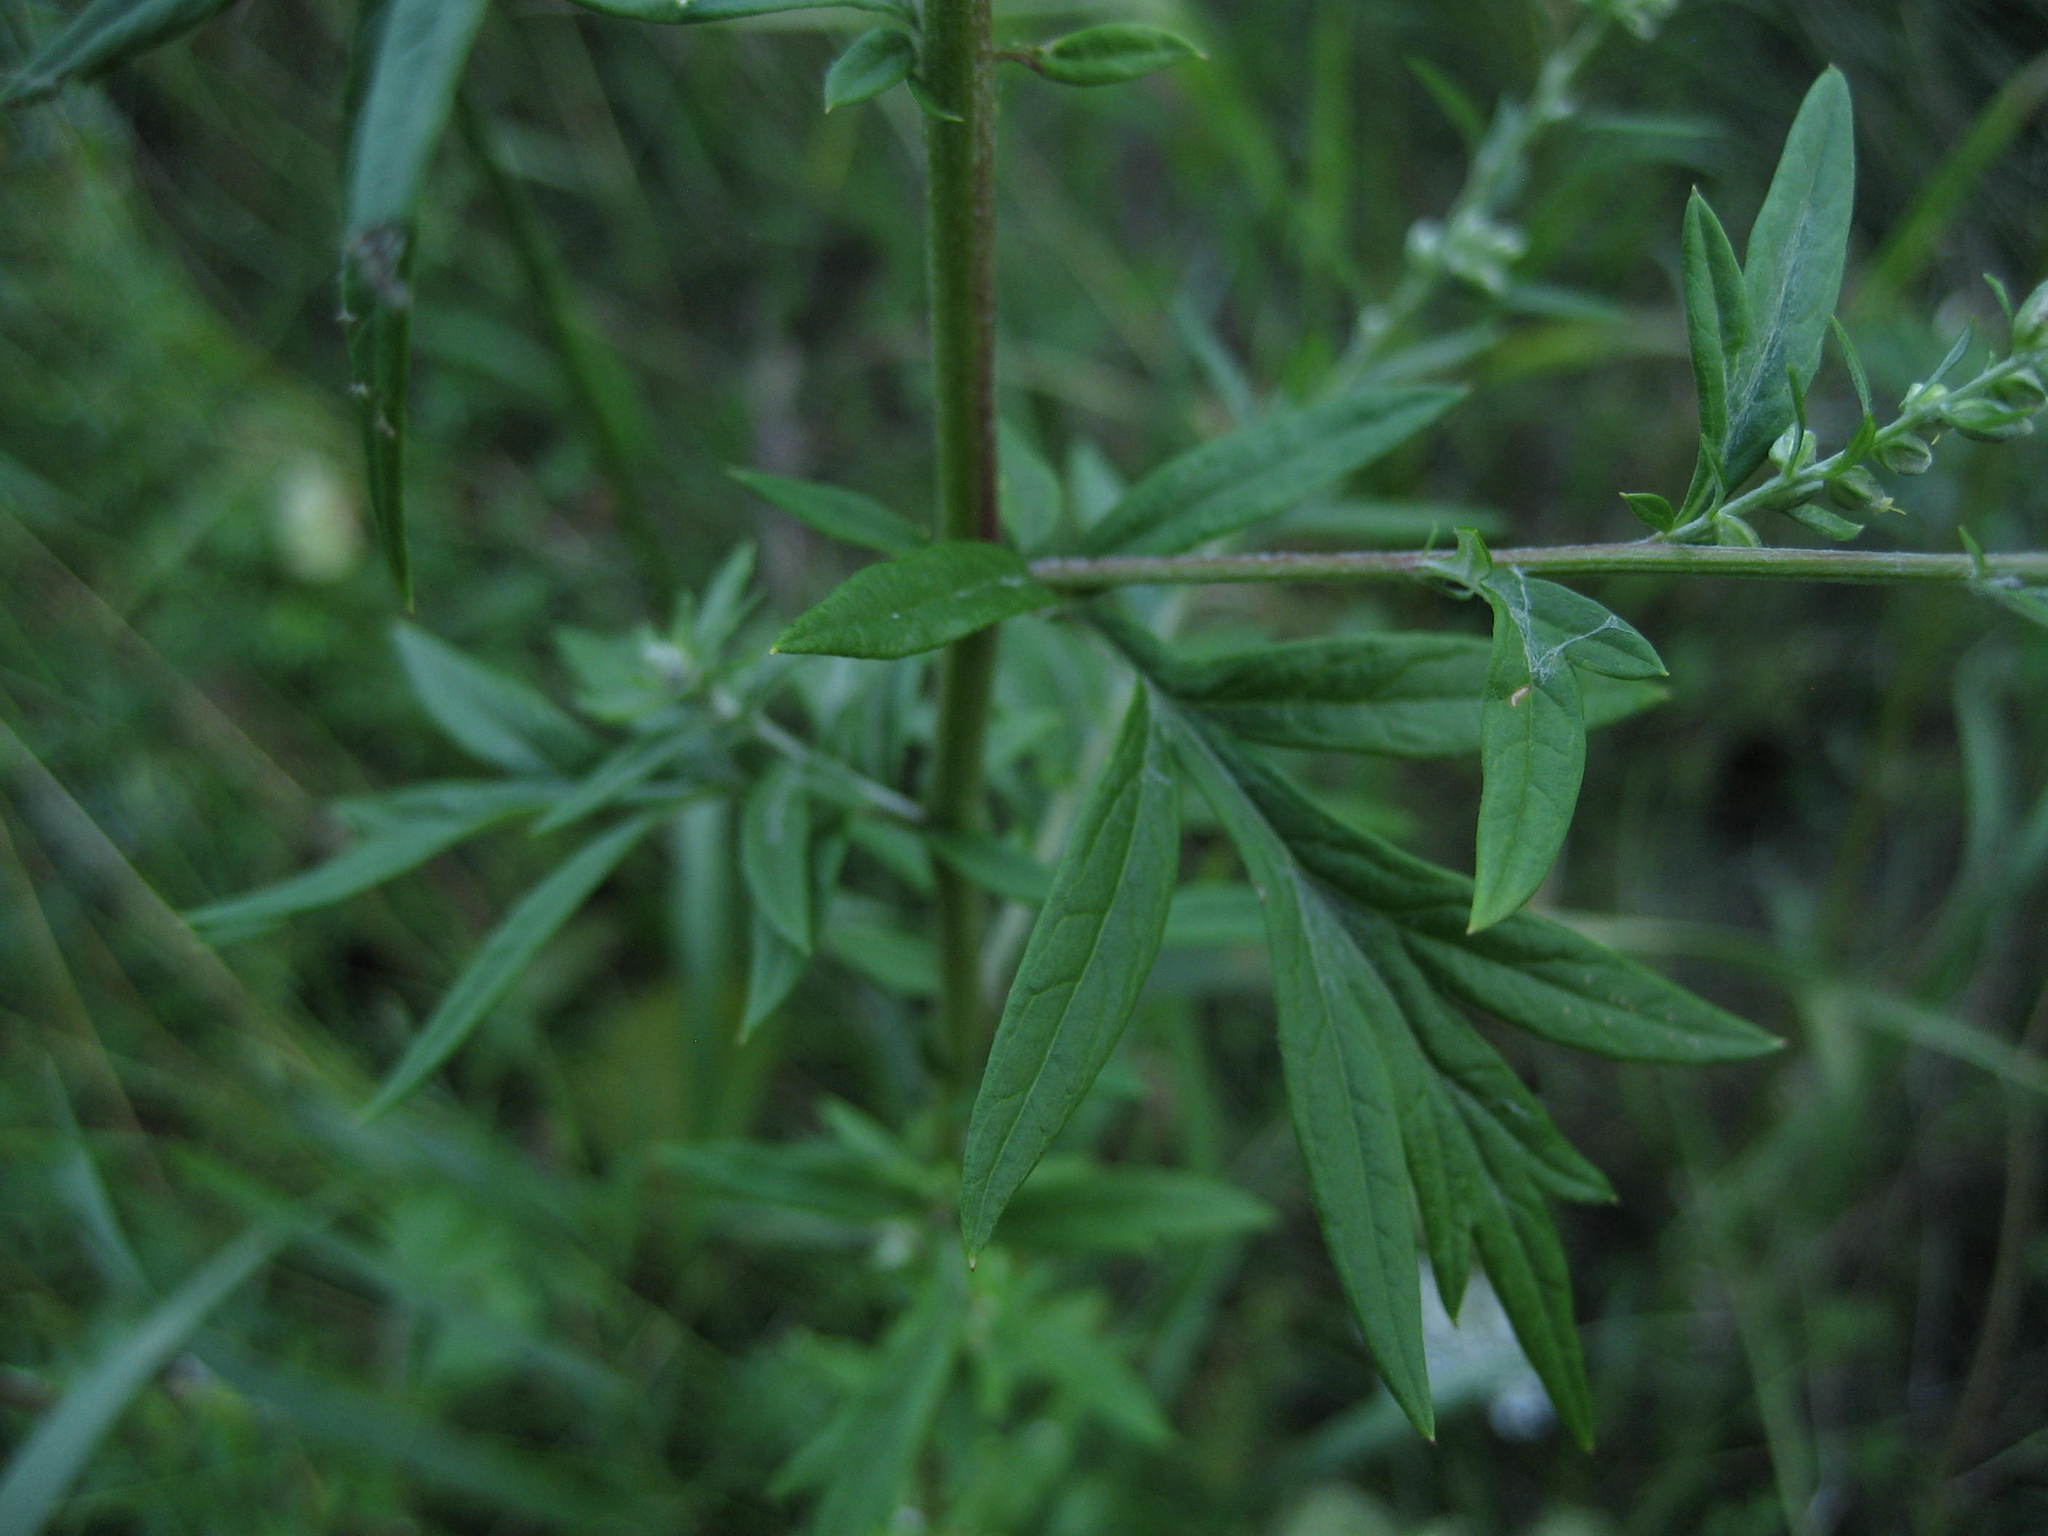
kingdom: Plantae
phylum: Tracheophyta
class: Magnoliopsida
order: Asterales
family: Asteraceae
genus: Artemisia
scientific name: Artemisia vulgaris
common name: Mugwort
